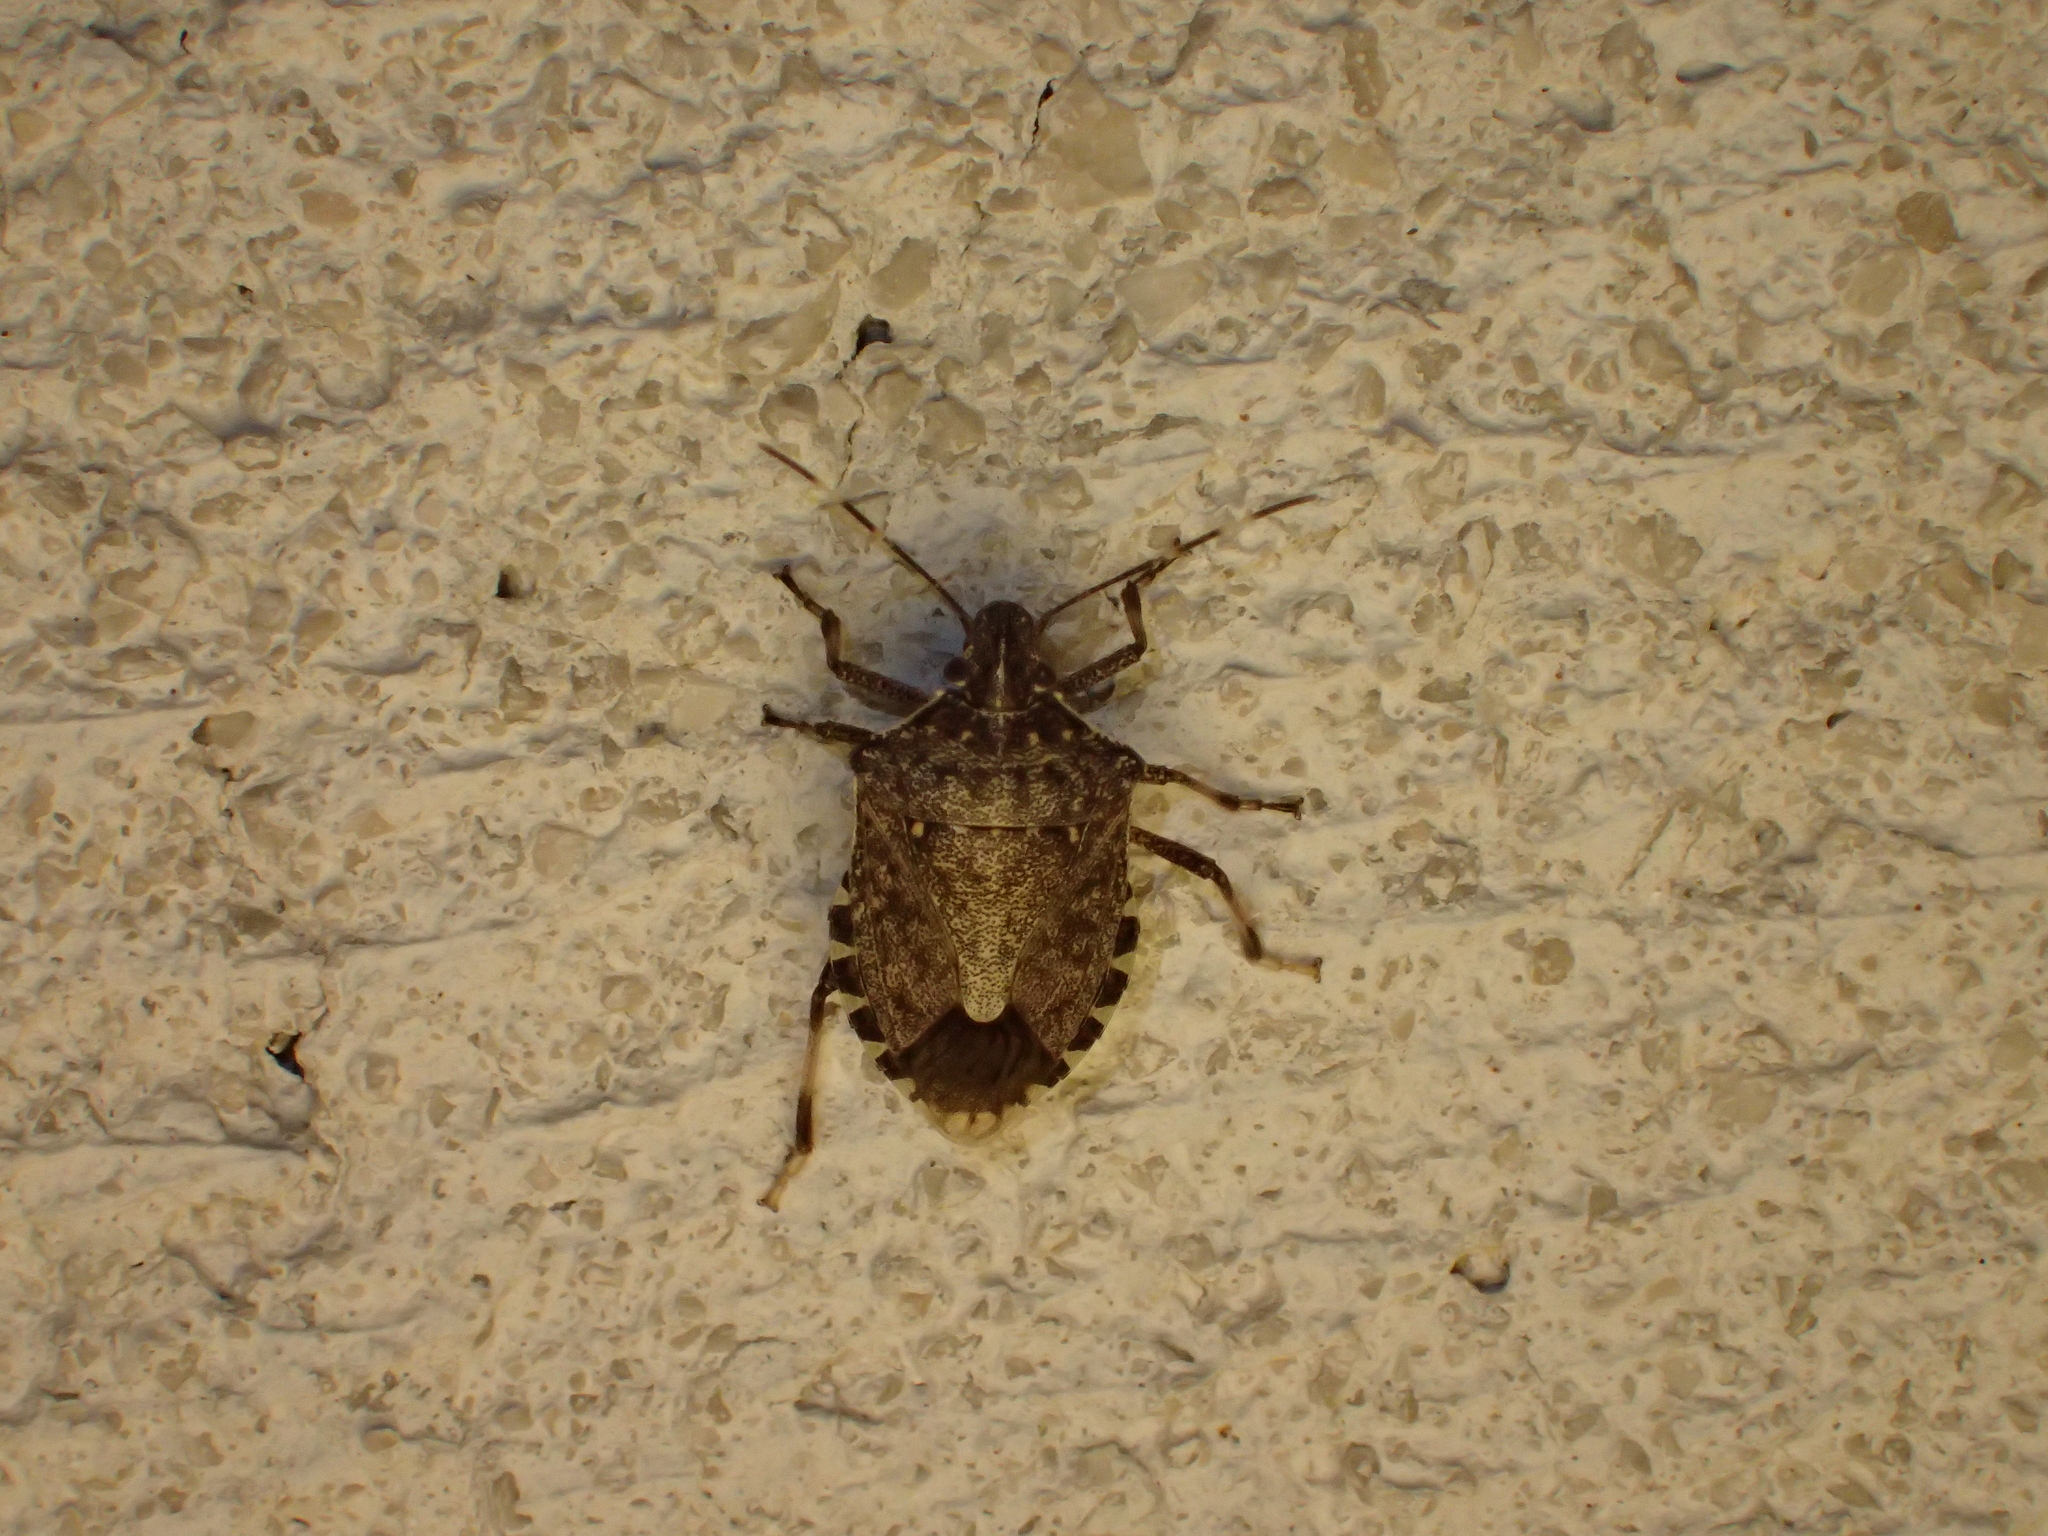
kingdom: Animalia
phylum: Arthropoda
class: Insecta
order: Hemiptera
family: Pentatomidae
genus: Halyomorpha
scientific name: Halyomorpha halys
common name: Brown marmorated stink bug
